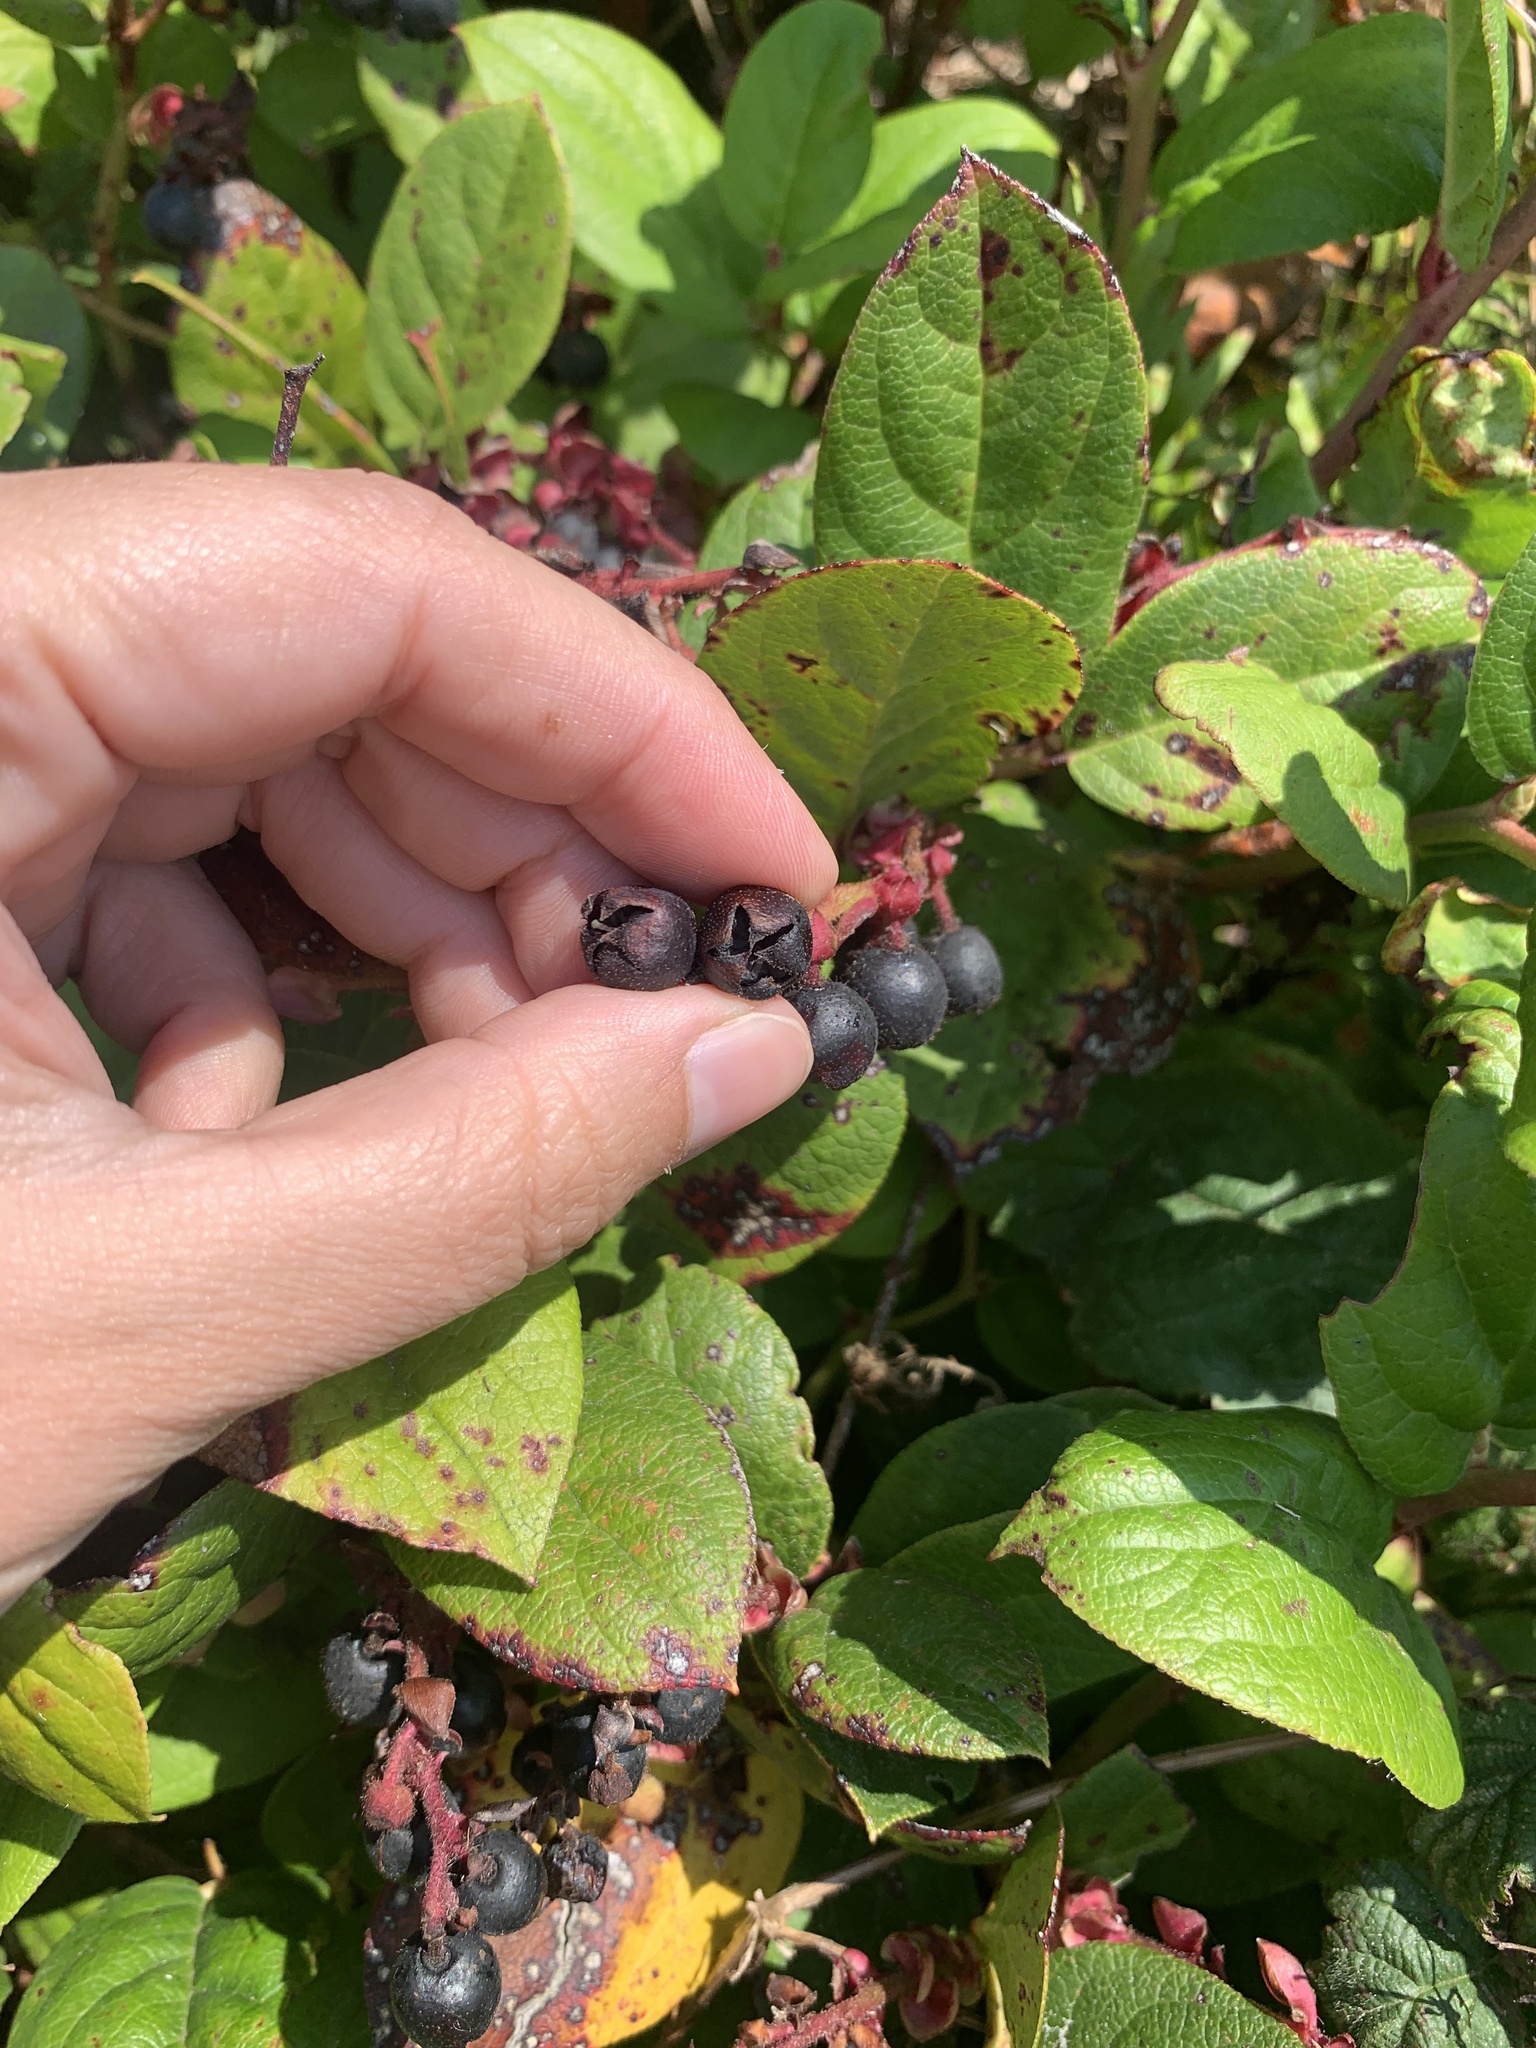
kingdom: Plantae
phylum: Tracheophyta
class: Magnoliopsida
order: Ericales
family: Ericaceae
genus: Gaultheria
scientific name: Gaultheria shallon
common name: Shallon
